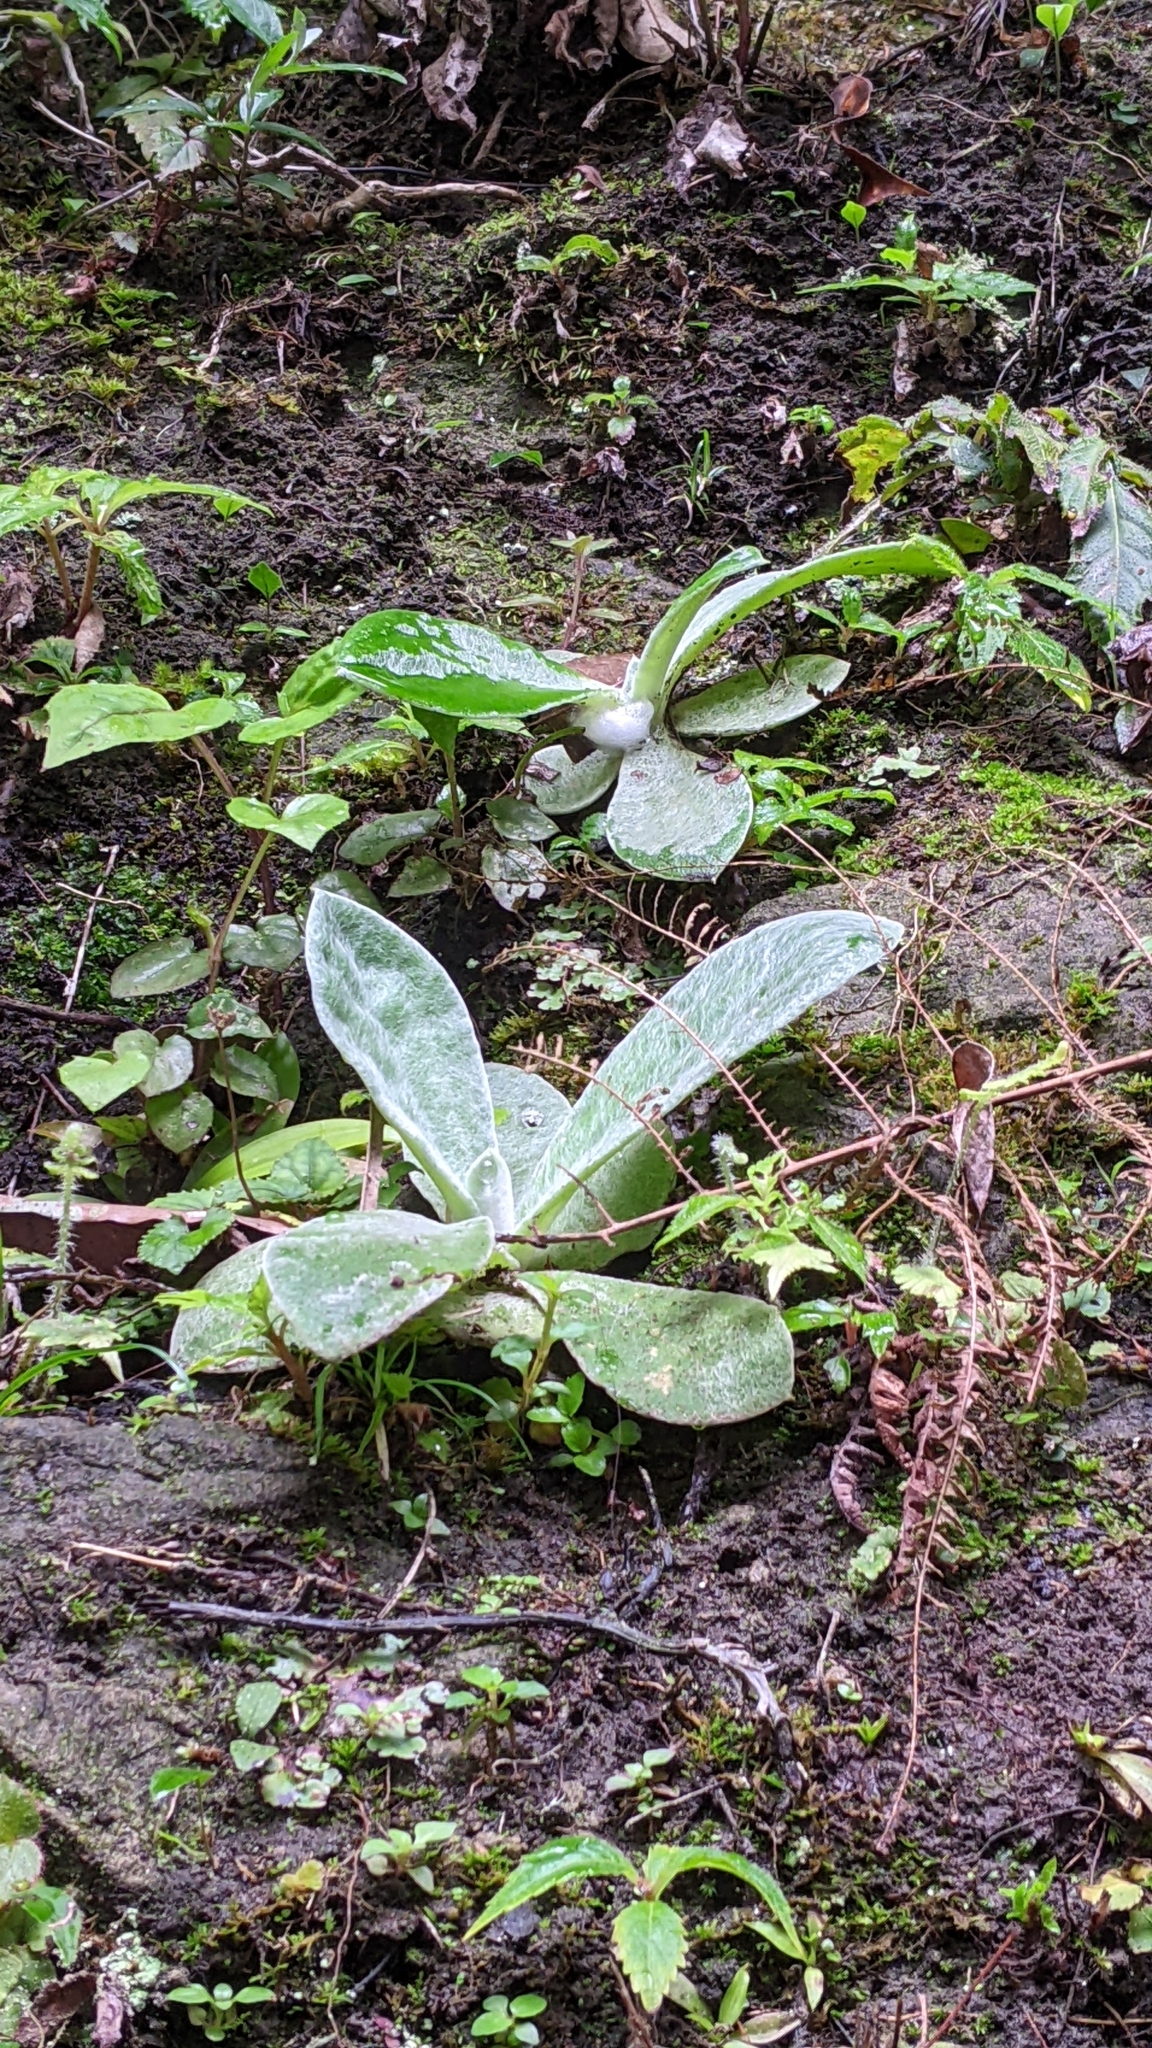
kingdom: Plantae
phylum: Tracheophyta
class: Magnoliopsida
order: Asterales
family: Asteraceae
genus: Pseudognaphalium
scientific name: Pseudognaphalium adnatum
